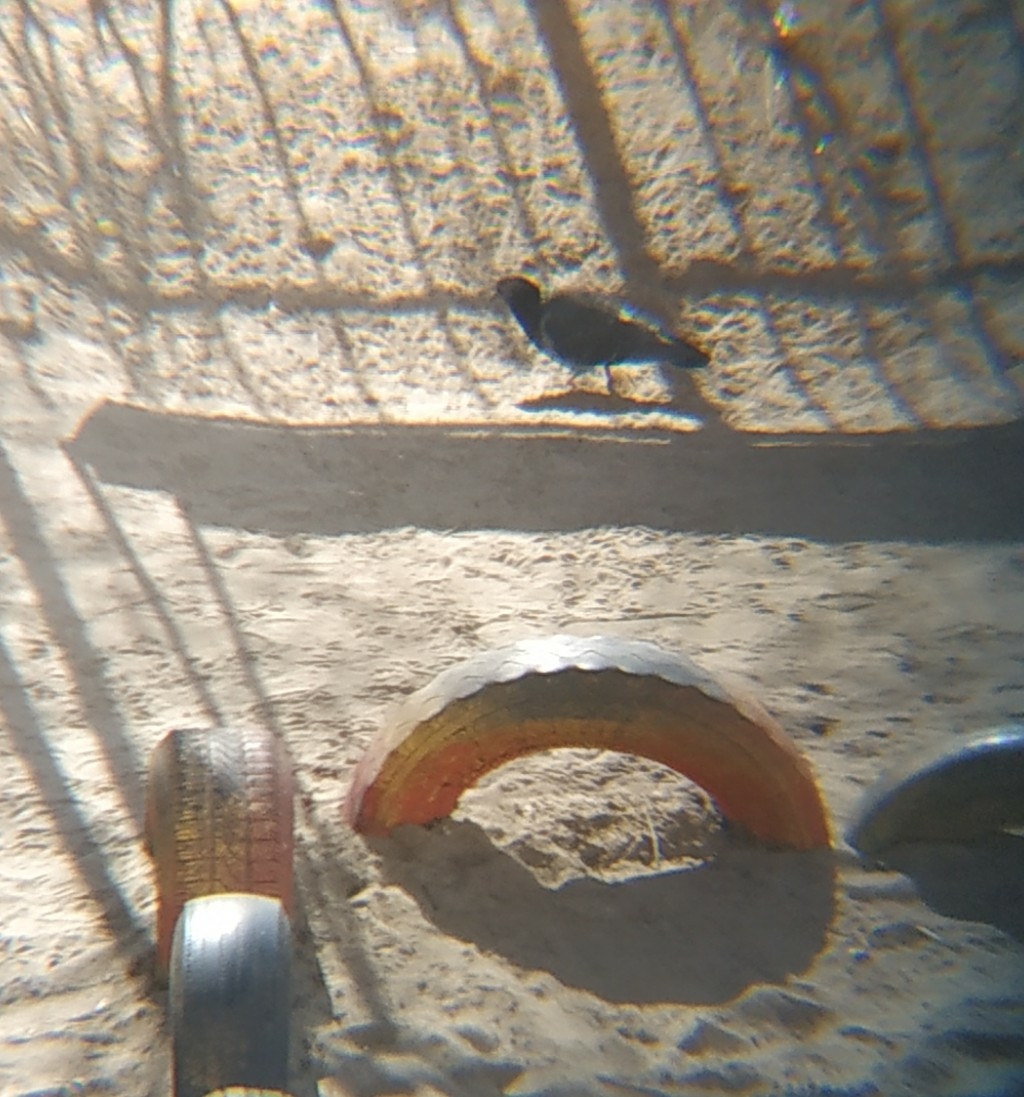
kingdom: Animalia
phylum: Chordata
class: Aves
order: Columbiformes
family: Columbidae
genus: Columba
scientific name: Columba livia
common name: Rock pigeon
